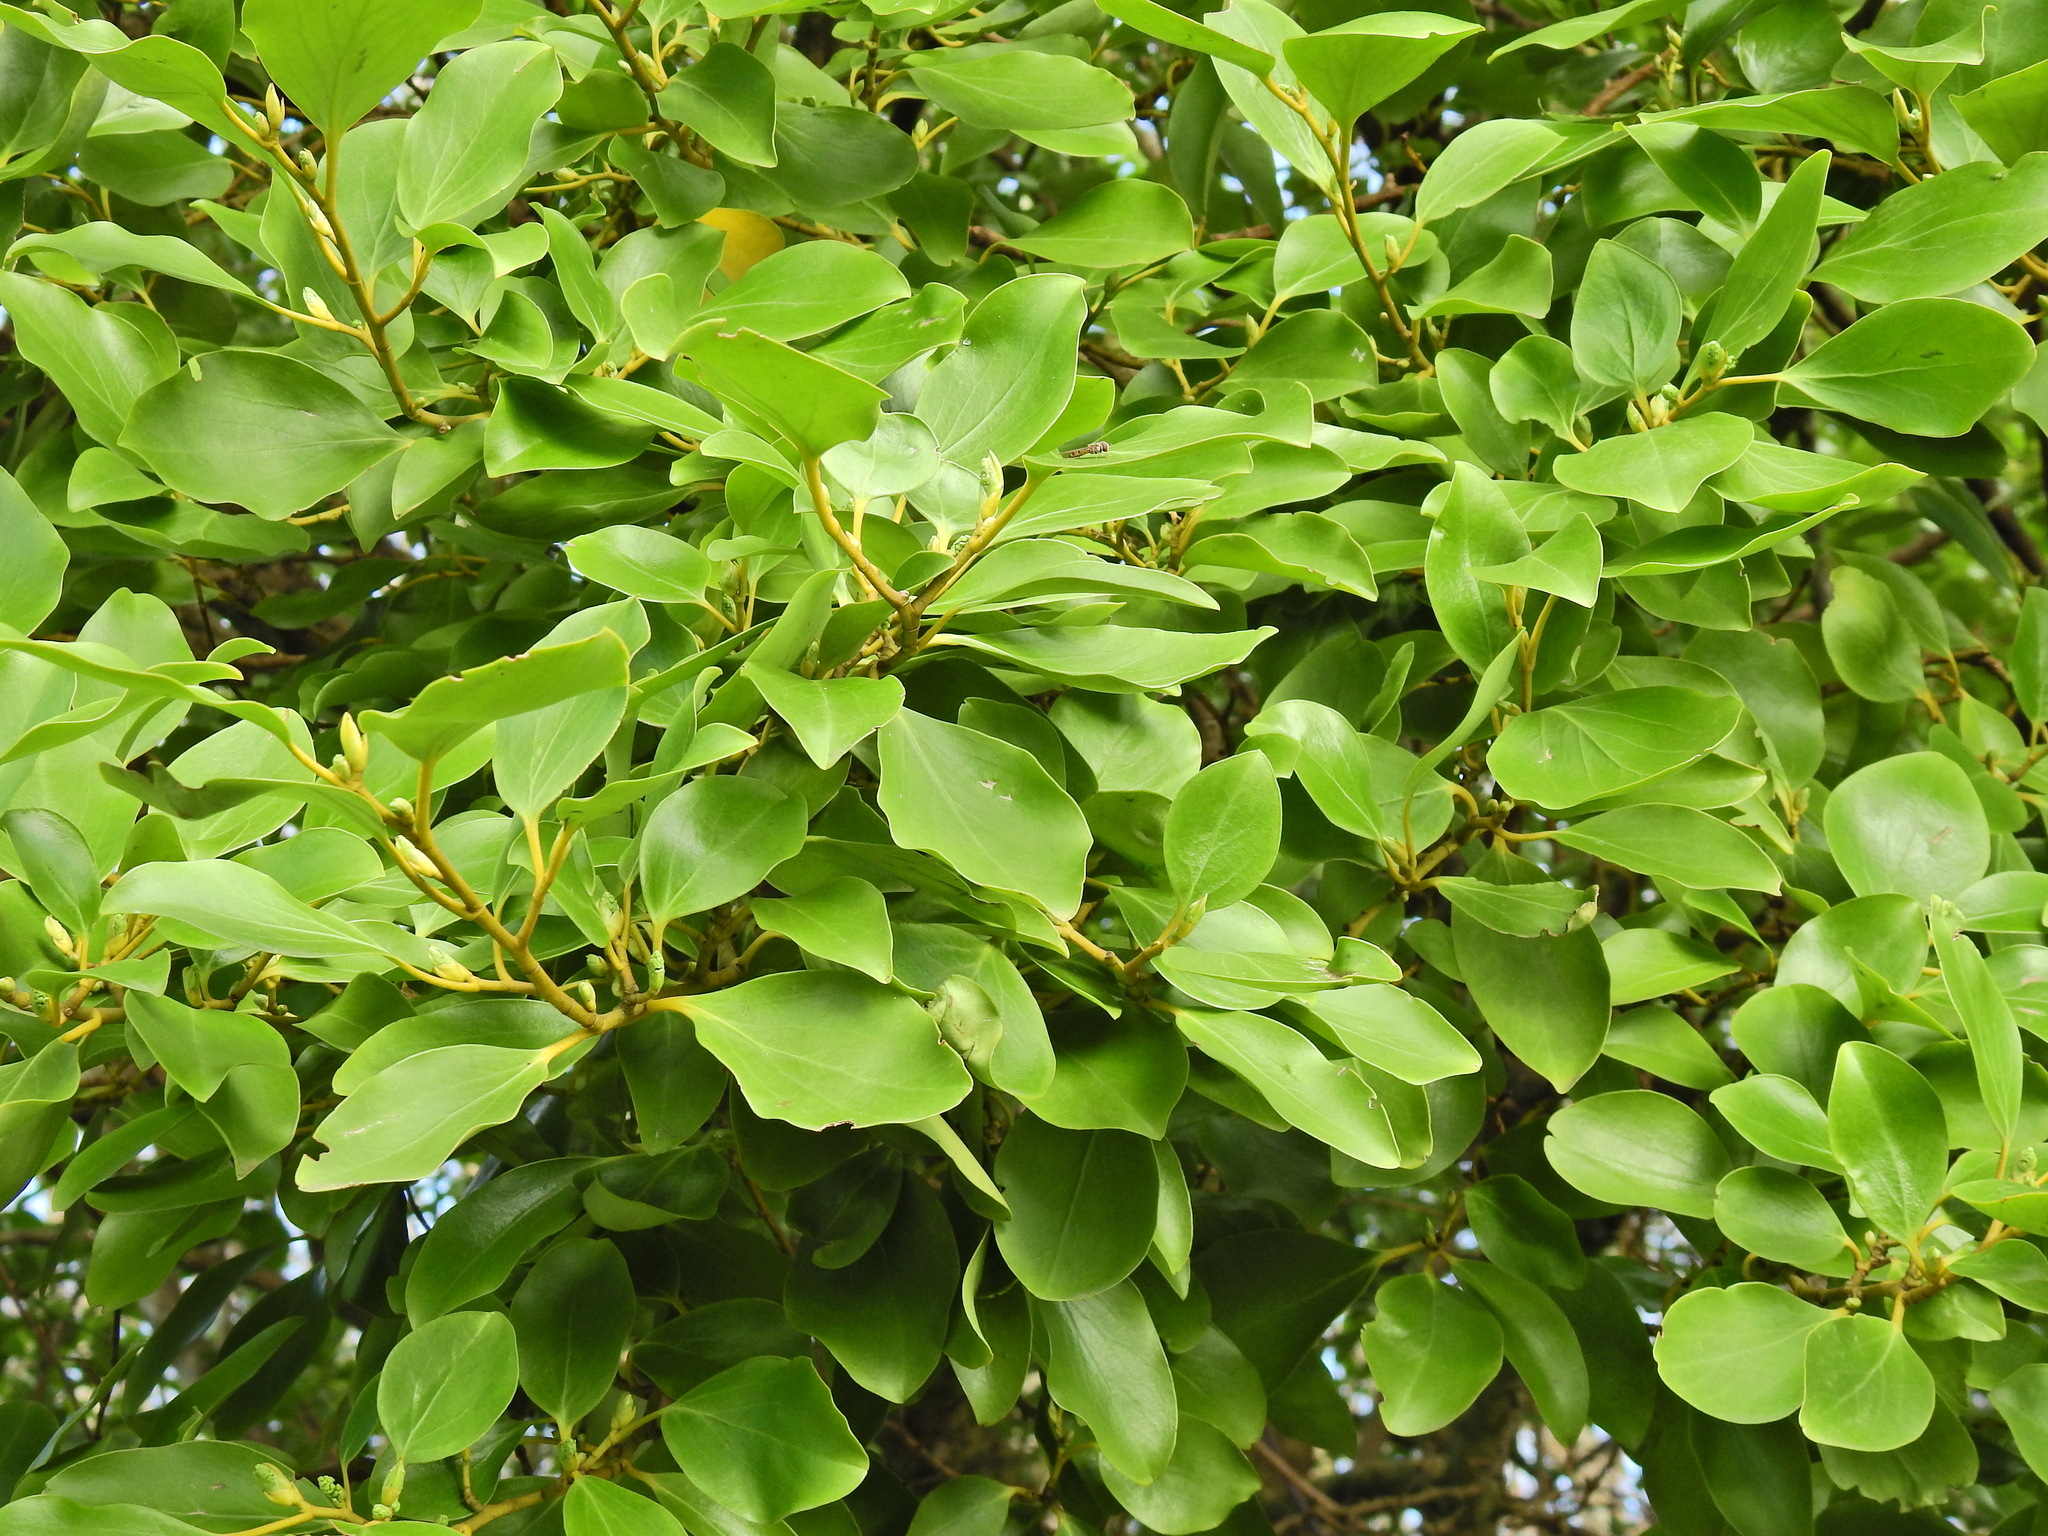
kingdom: Plantae
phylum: Tracheophyta
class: Magnoliopsida
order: Apiales
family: Griseliniaceae
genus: Griselinia
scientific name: Griselinia littoralis
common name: New zealand broadleaf
